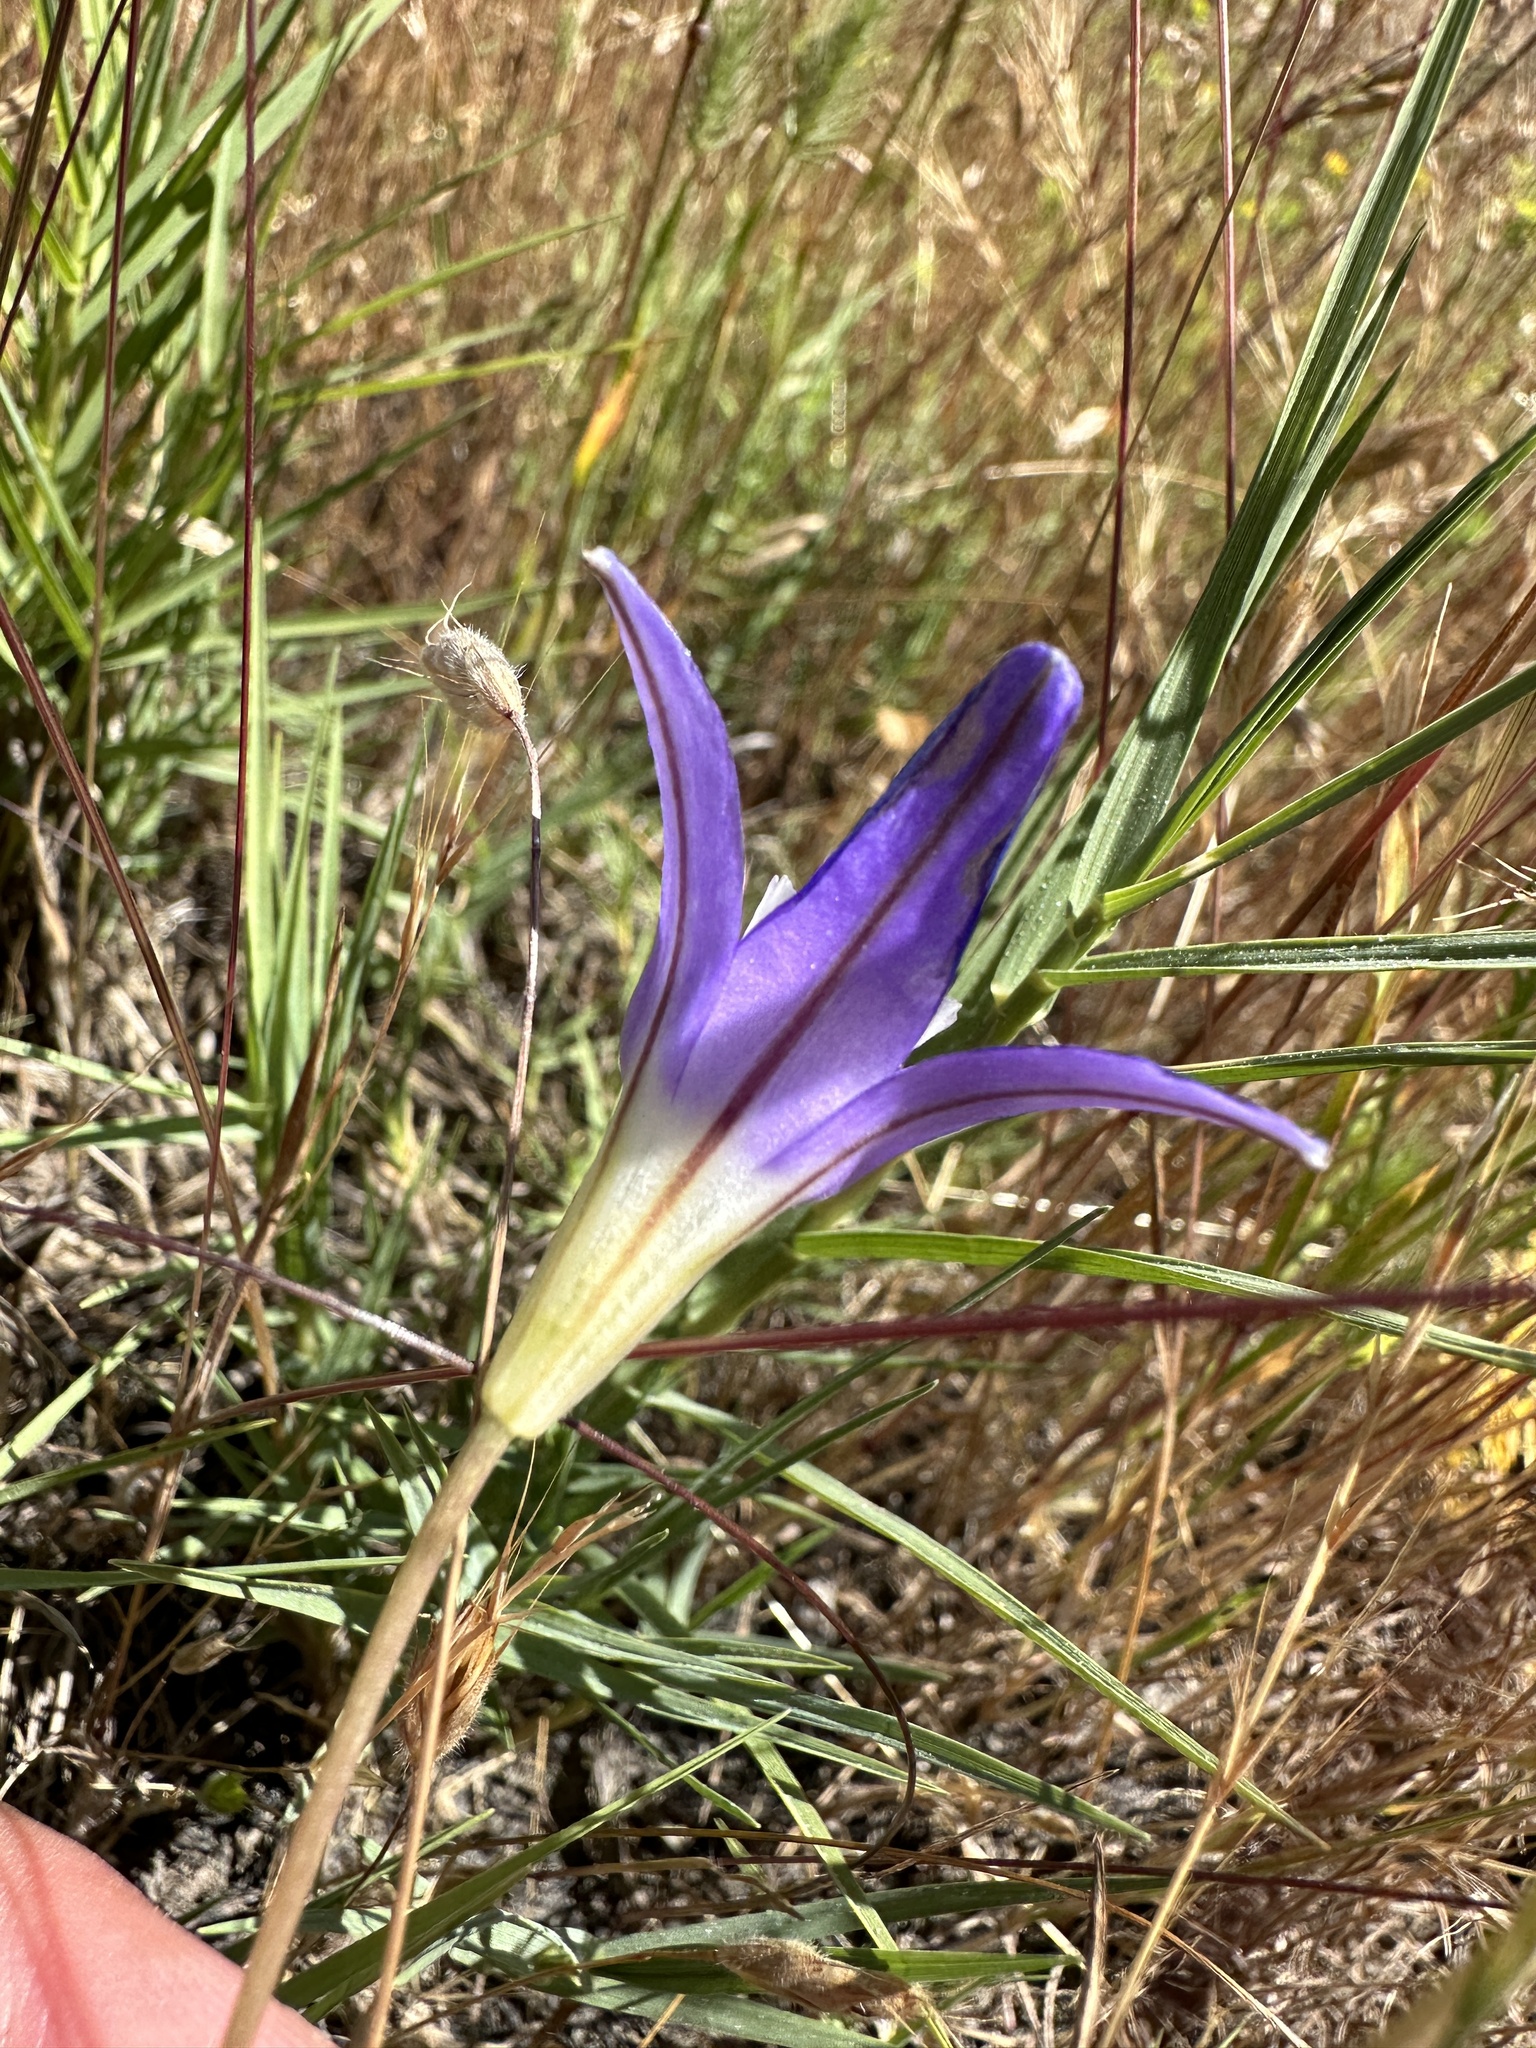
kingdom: Plantae
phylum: Tracheophyta
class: Liliopsida
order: Asparagales
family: Asparagaceae
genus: Brodiaea
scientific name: Brodiaea terrestris
